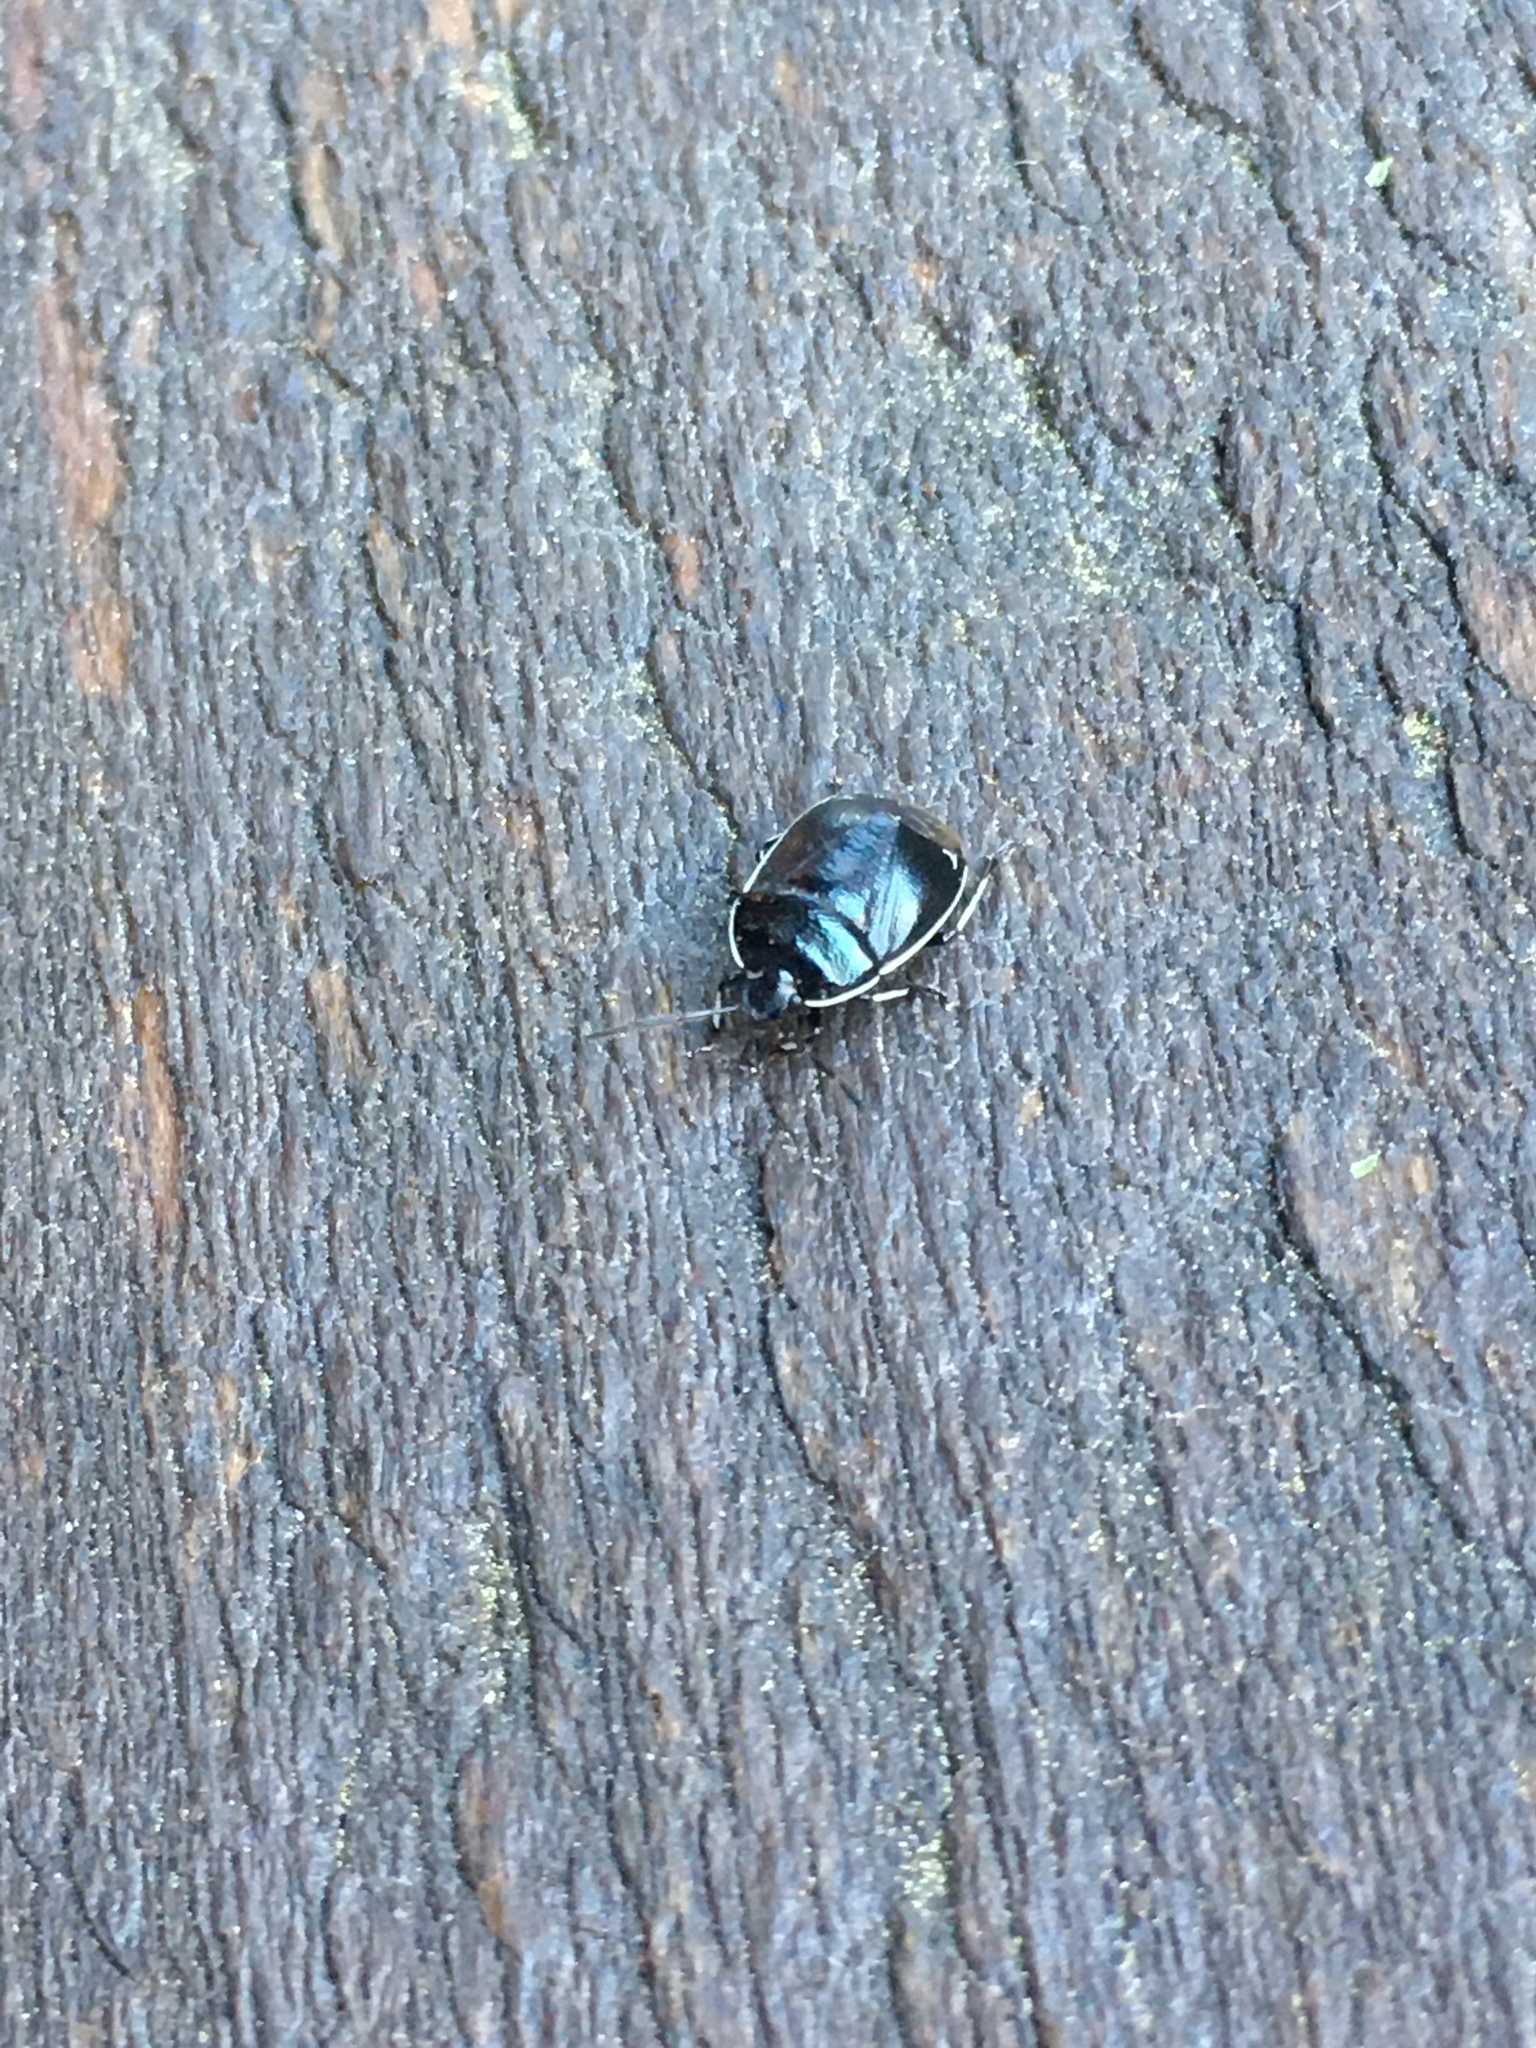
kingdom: Animalia
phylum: Arthropoda
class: Insecta
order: Hemiptera
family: Cydnidae
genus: Sehirus
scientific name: Sehirus cinctus
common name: White-margined burrower bug
